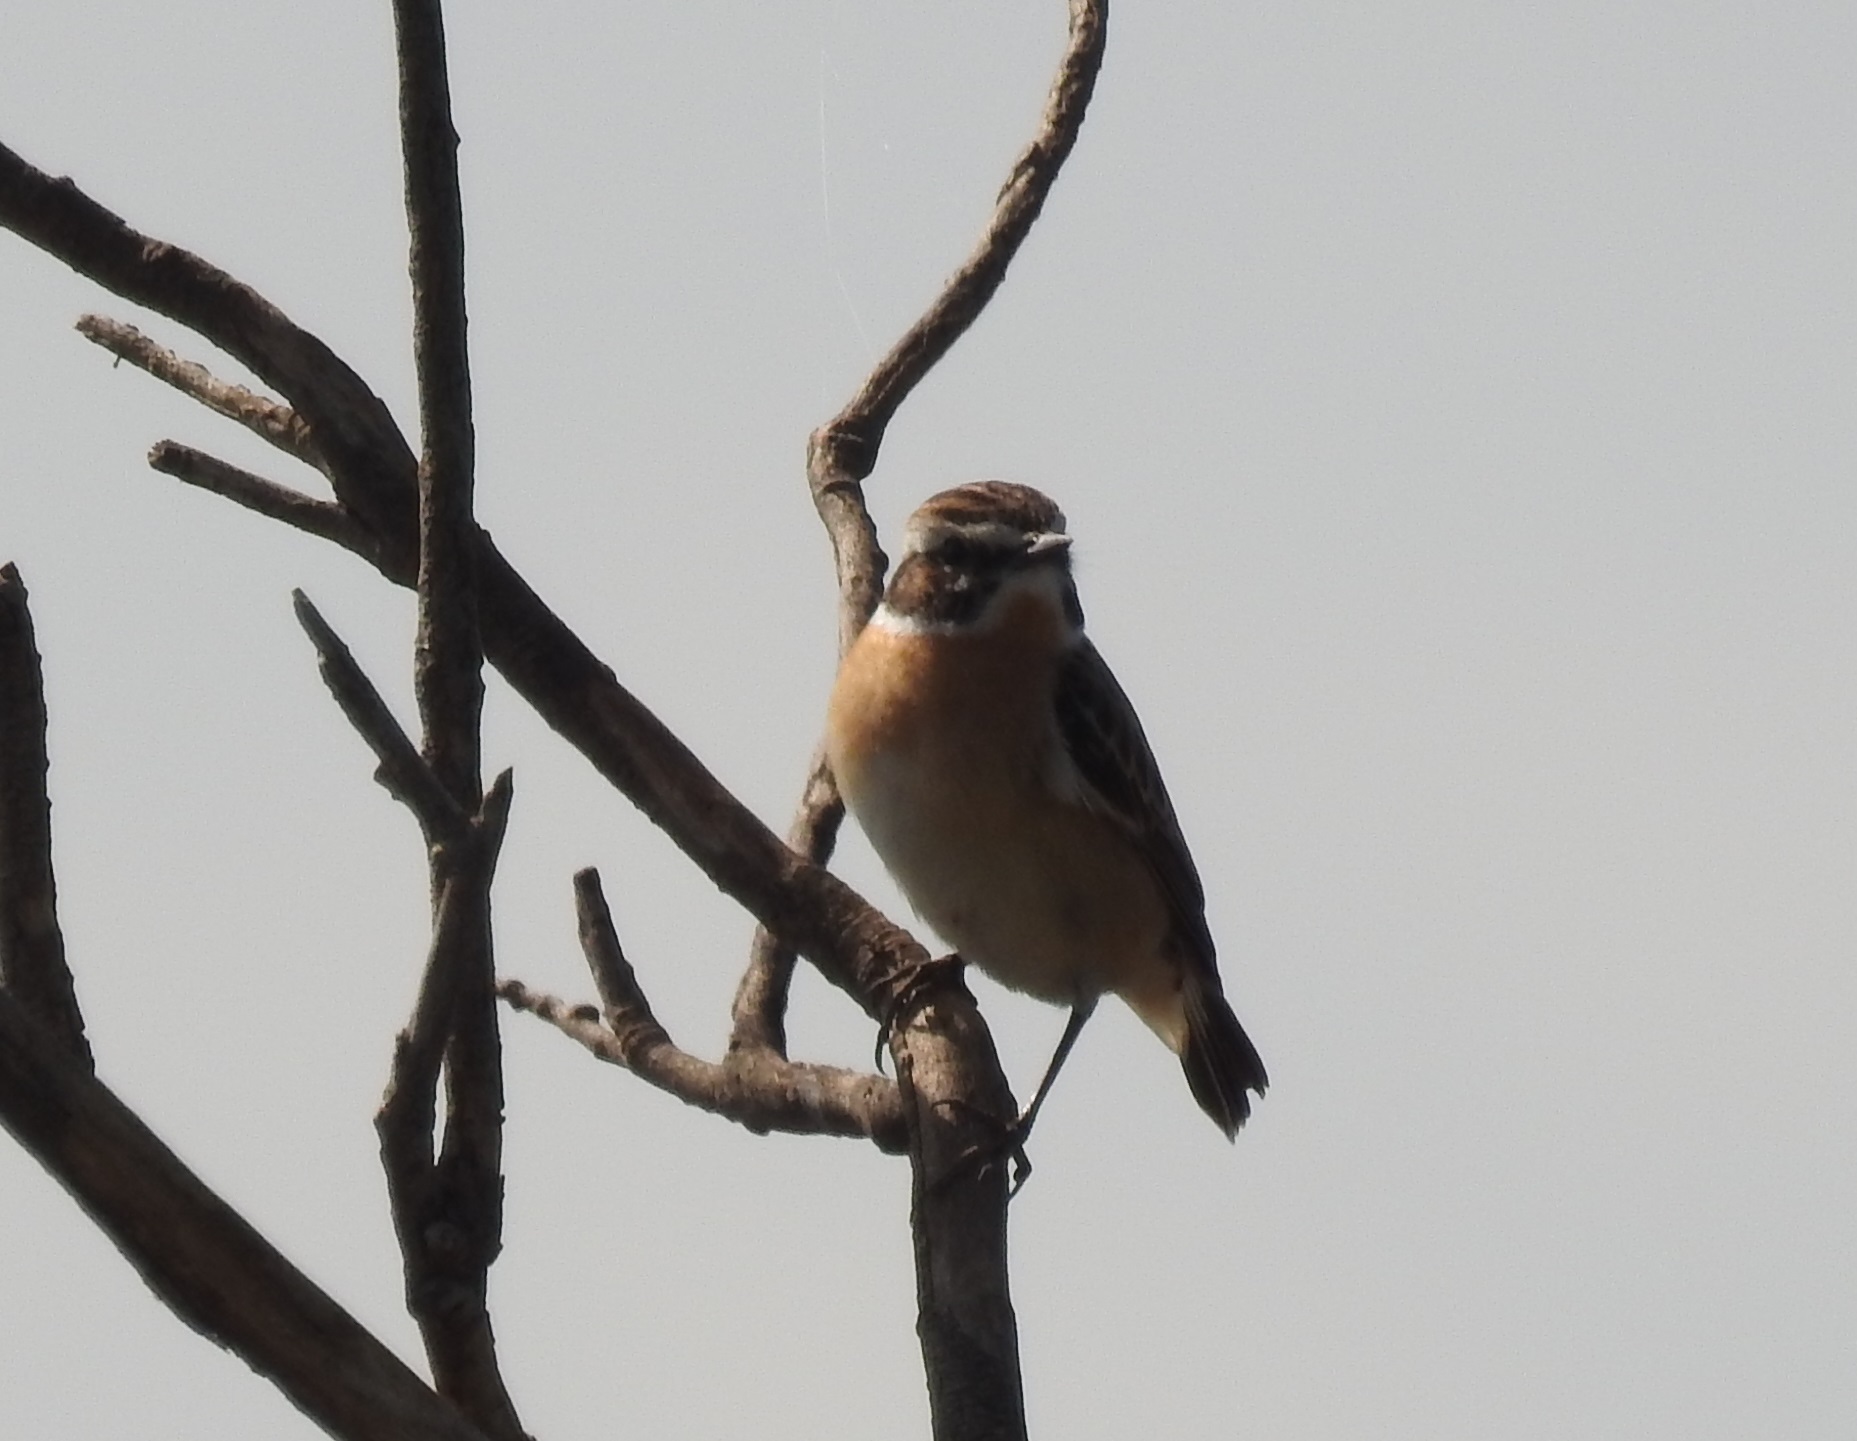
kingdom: Animalia
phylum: Chordata
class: Aves
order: Passeriformes
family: Muscicapidae
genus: Saxicola
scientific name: Saxicola rubetra
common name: Whinchat
